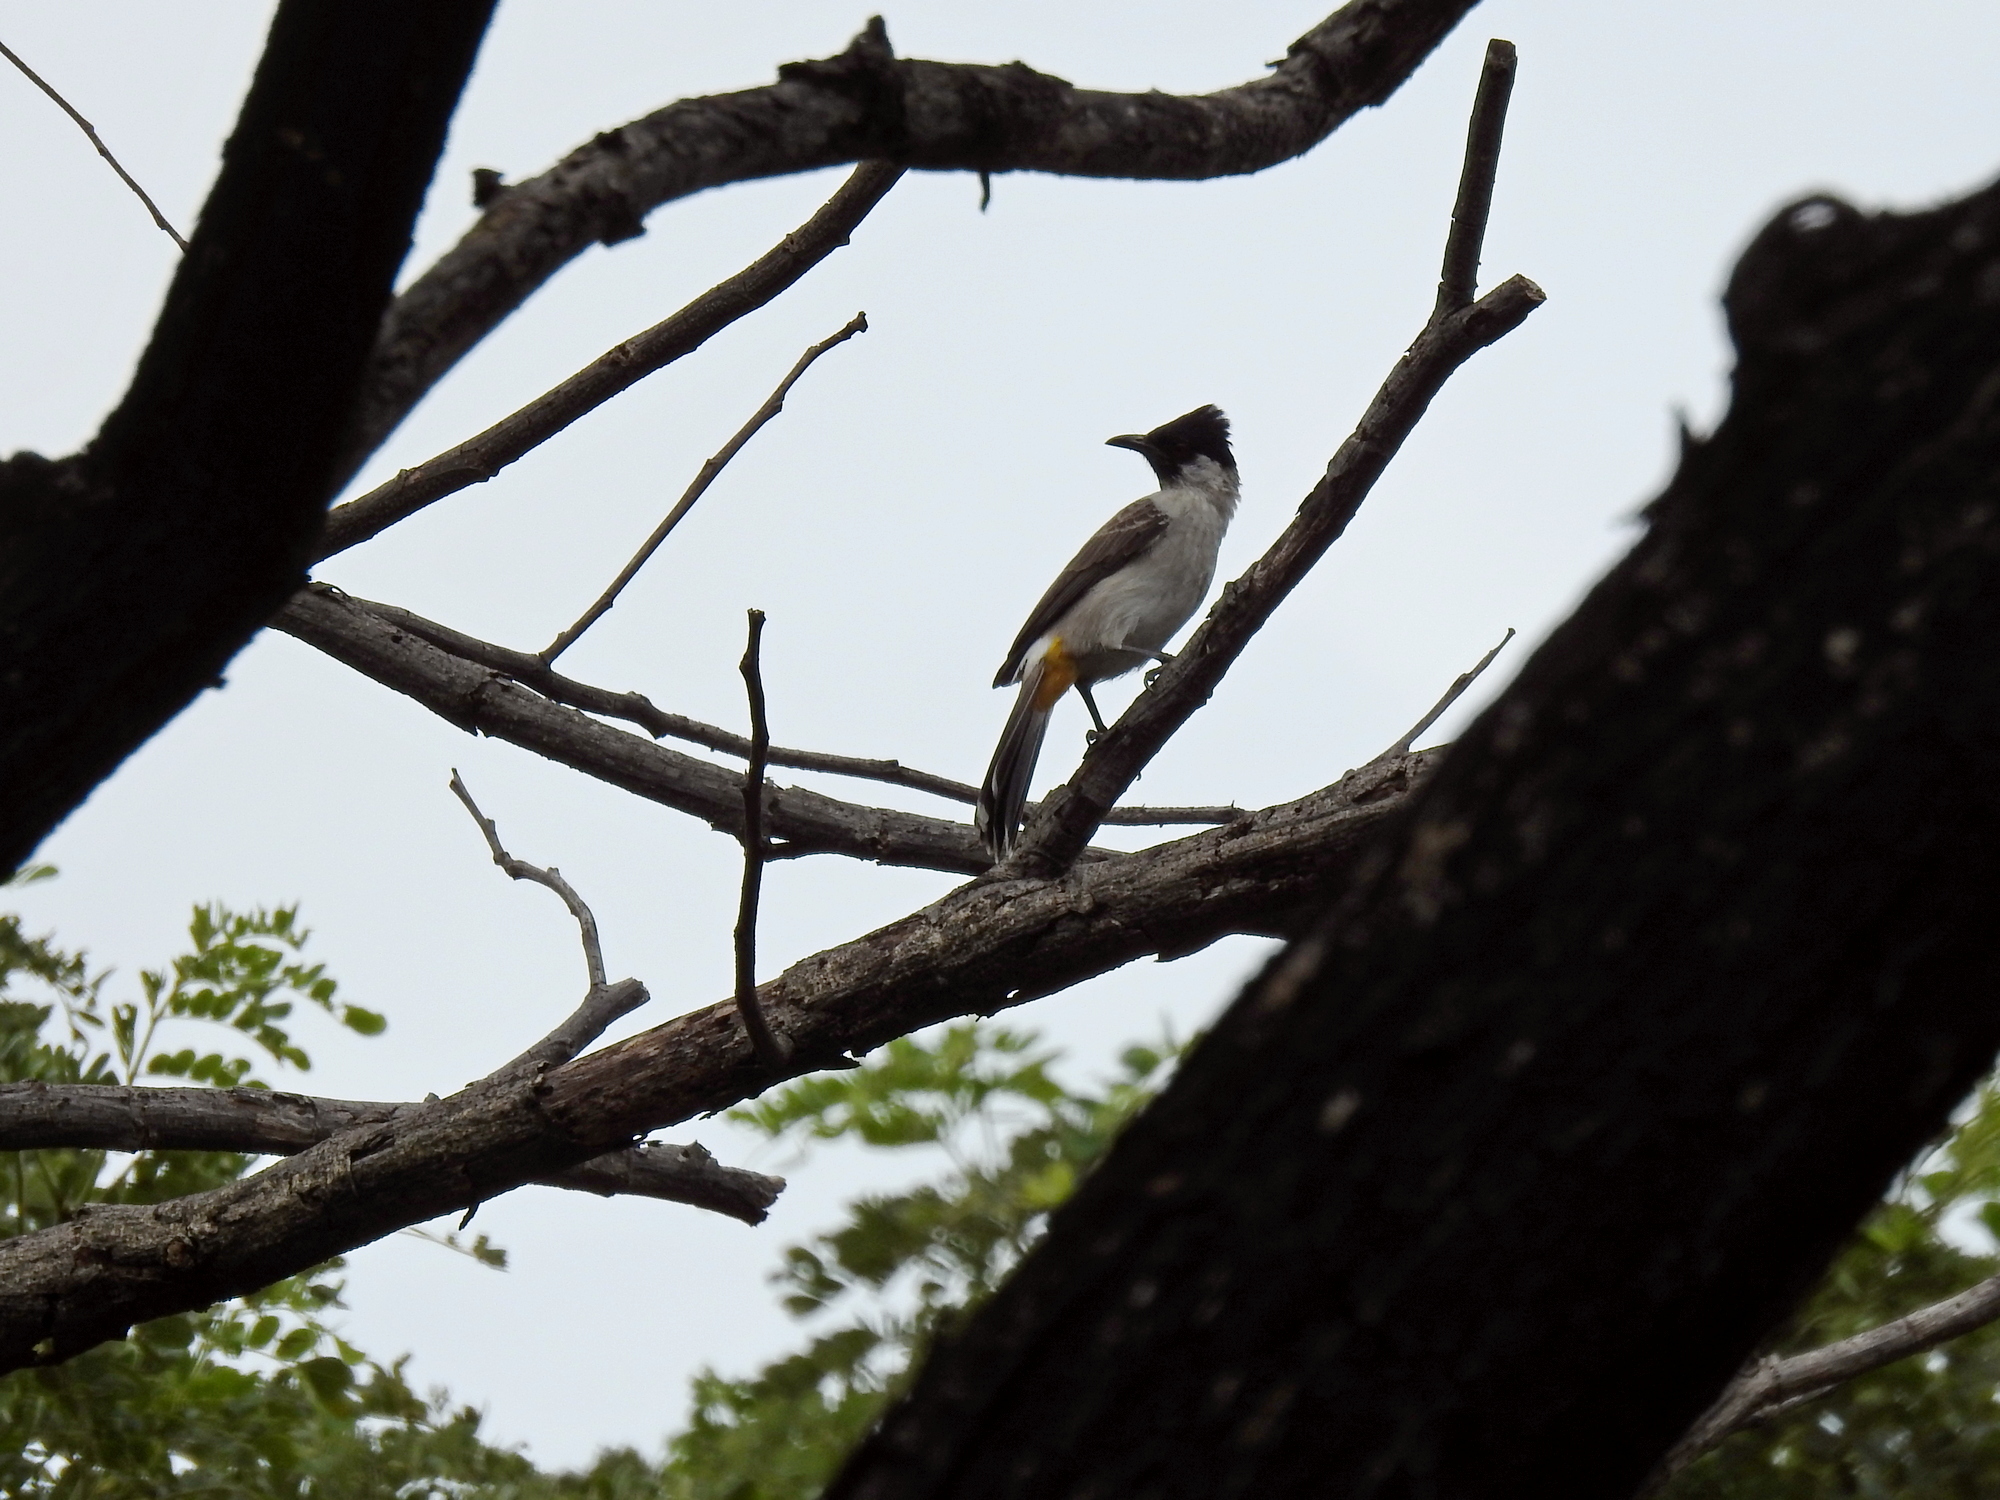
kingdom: Animalia
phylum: Chordata
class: Aves
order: Passeriformes
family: Pycnonotidae
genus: Pycnonotus
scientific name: Pycnonotus aurigaster
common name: Sooty-headed bulbul
